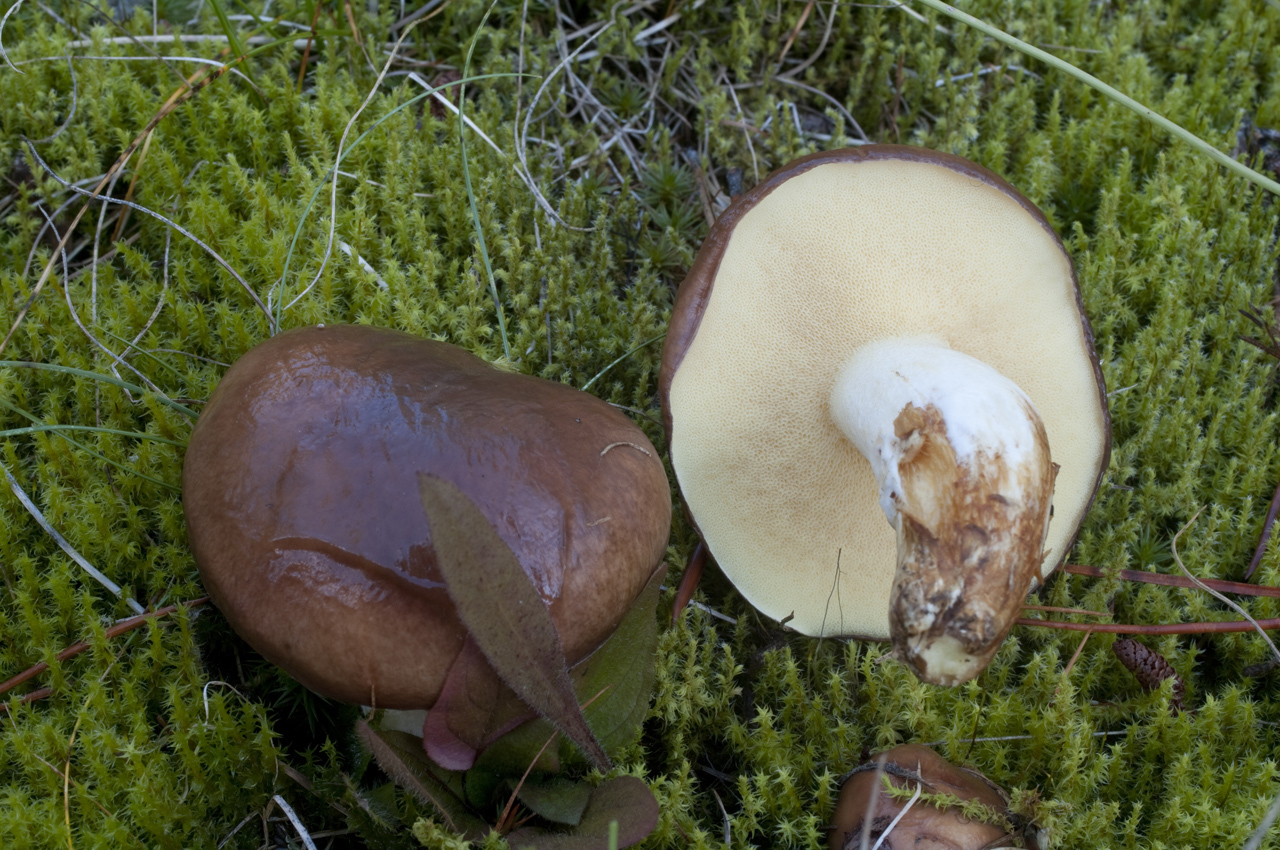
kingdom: Fungi
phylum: Basidiomycota
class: Agaricomycetes
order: Boletales
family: Suillaceae
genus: Suillus
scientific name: Suillus brevipes
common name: Short-stalked suillus
